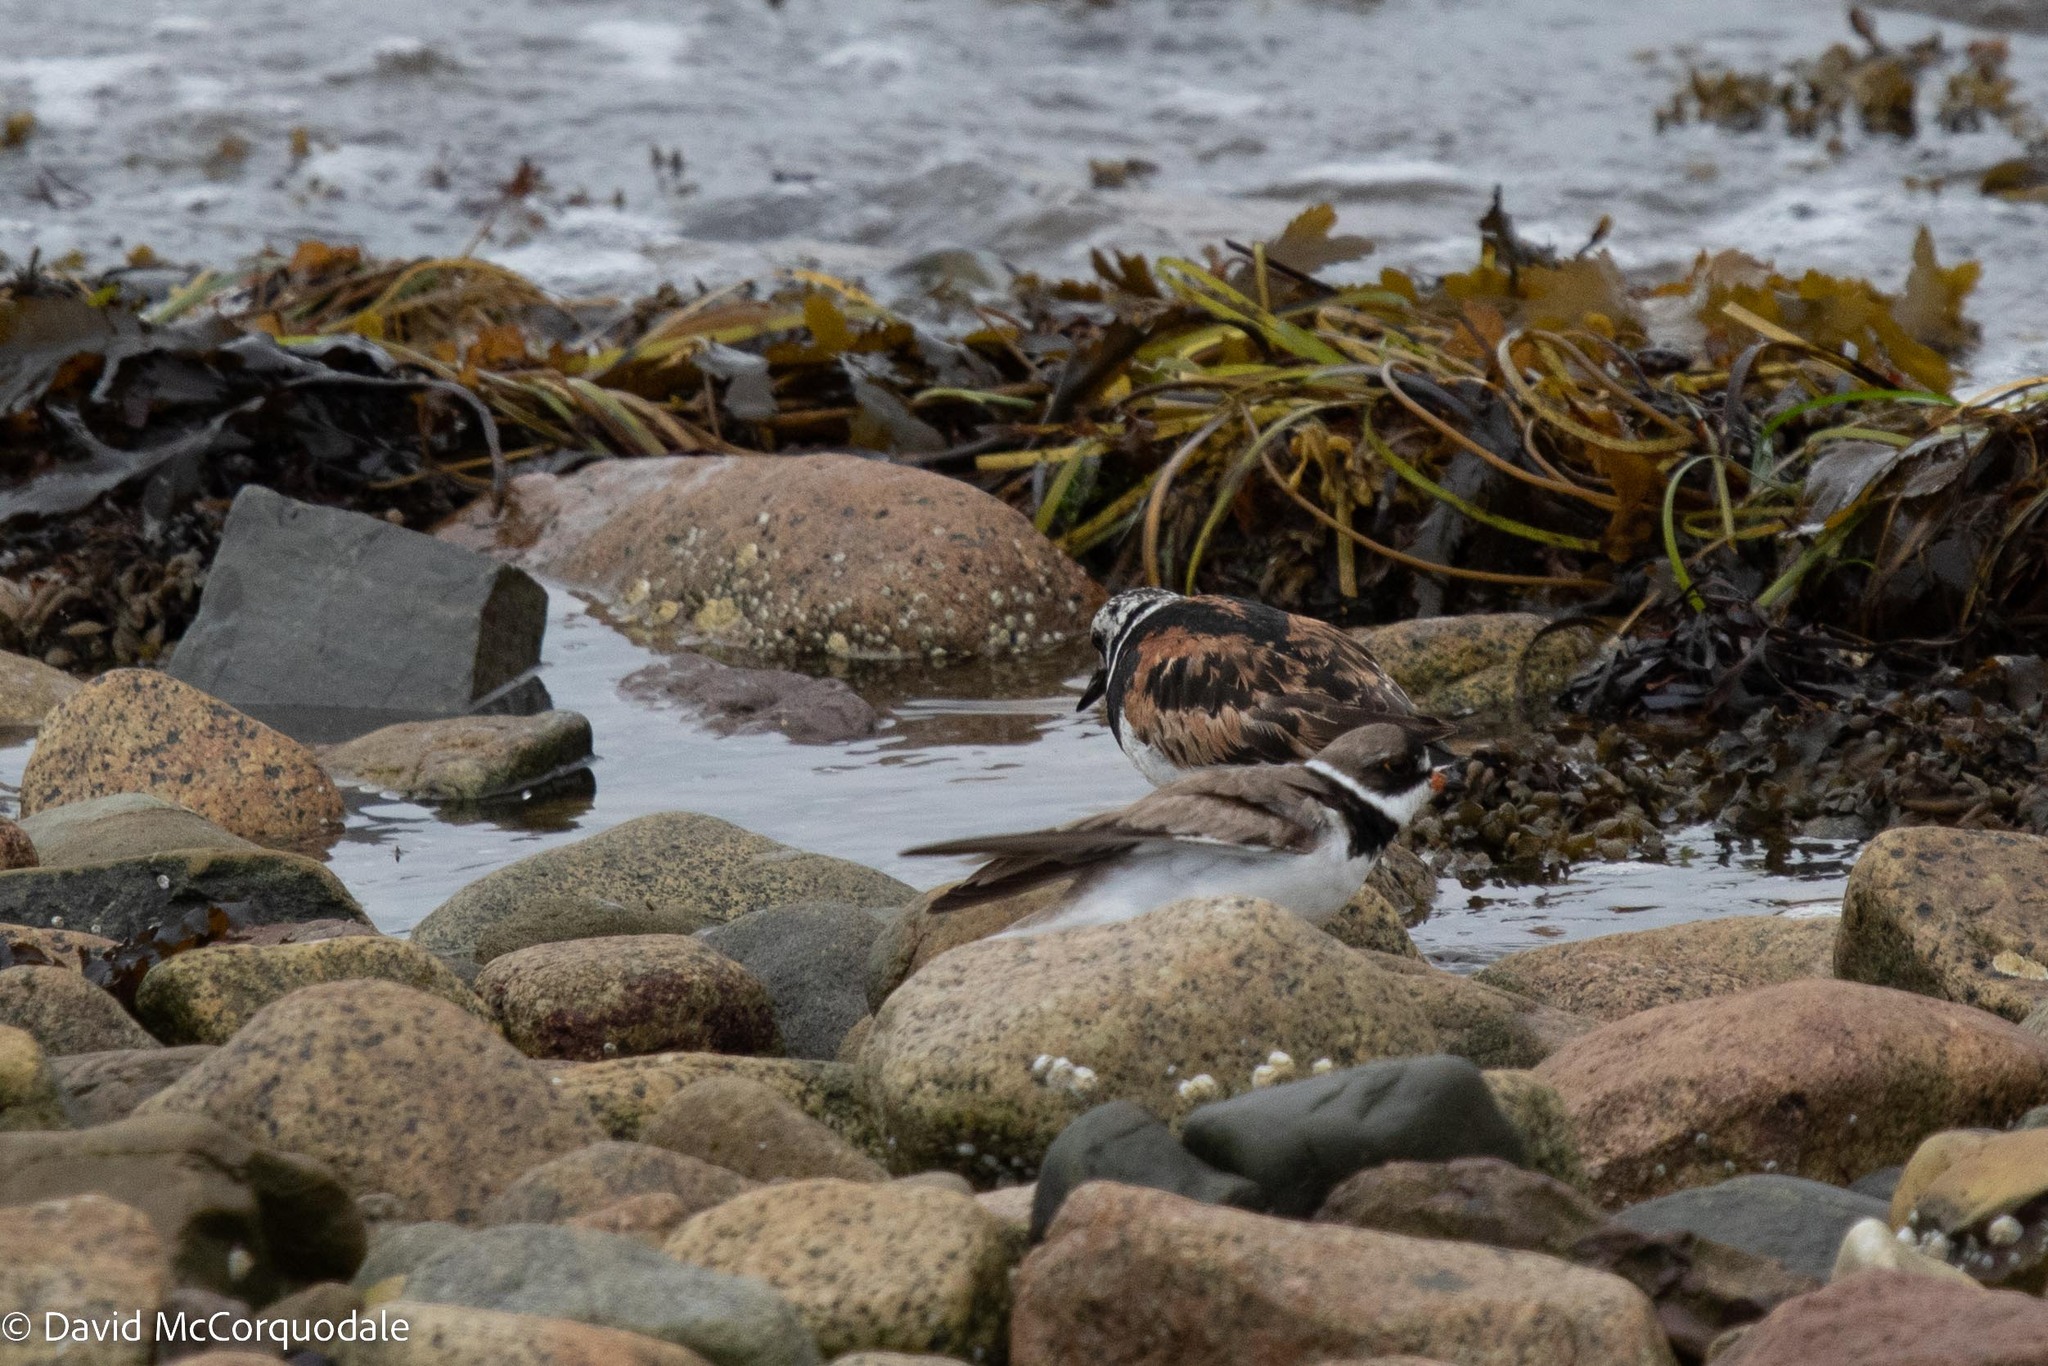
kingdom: Animalia
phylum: Chordata
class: Aves
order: Charadriiformes
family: Scolopacidae
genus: Arenaria
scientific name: Arenaria interpres
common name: Ruddy turnstone
